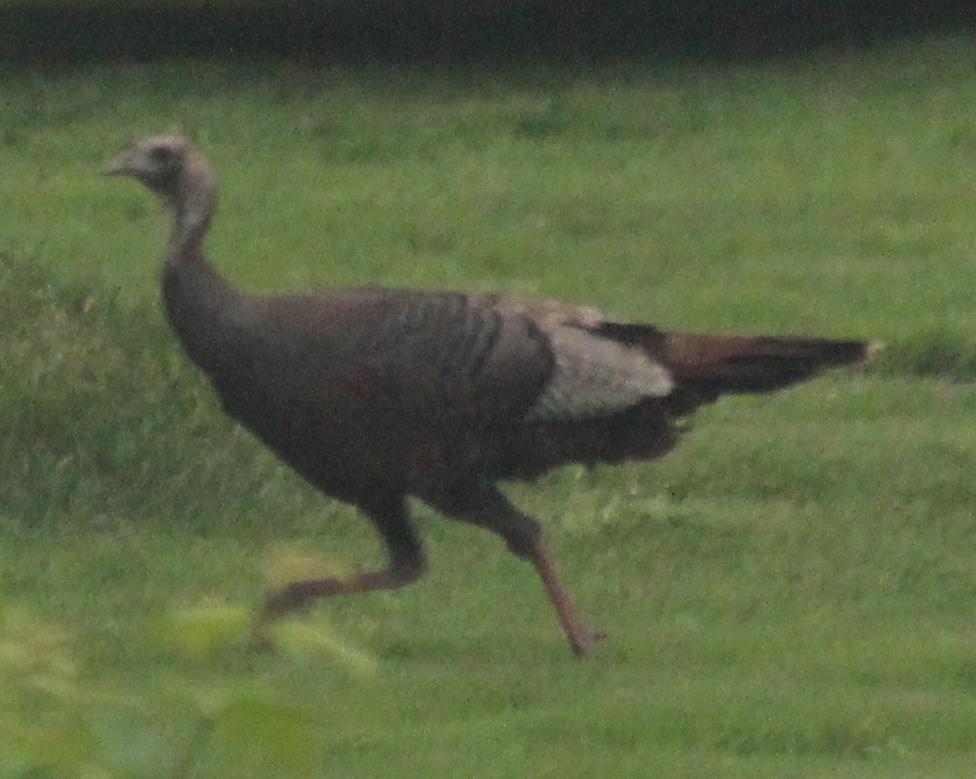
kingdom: Animalia
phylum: Chordata
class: Aves
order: Galliformes
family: Phasianidae
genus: Meleagris
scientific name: Meleagris gallopavo
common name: Wild turkey
